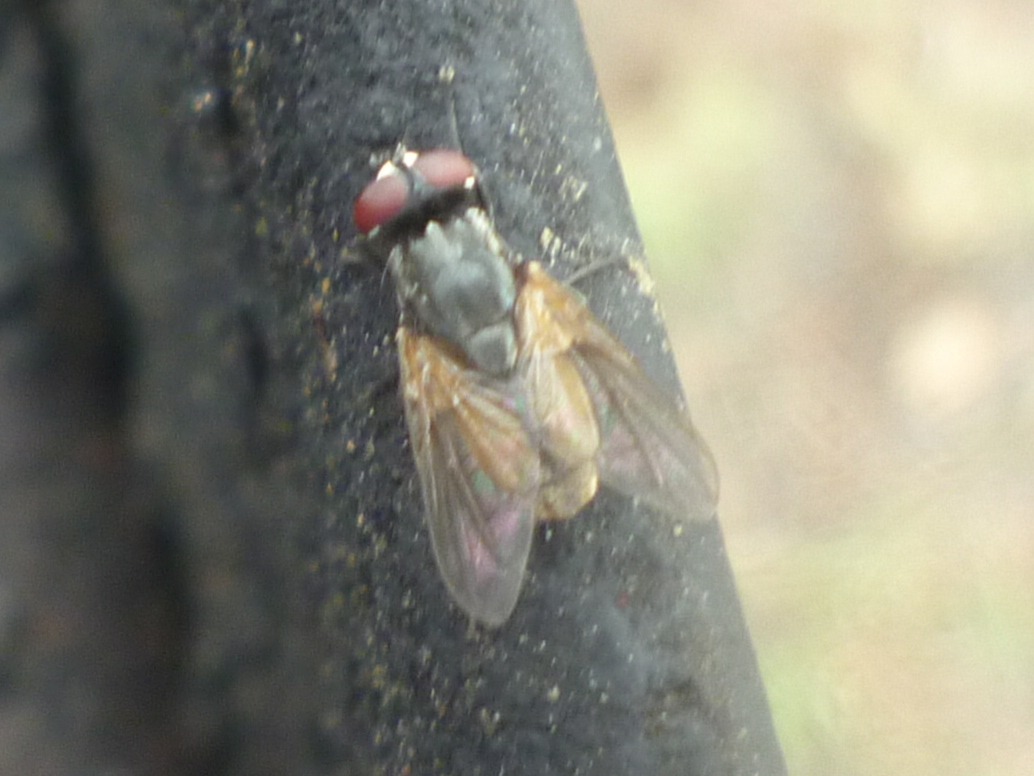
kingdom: Animalia
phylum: Arthropoda
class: Insecta
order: Diptera
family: Muscidae
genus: Musca
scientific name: Musca domestica
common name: House fly
